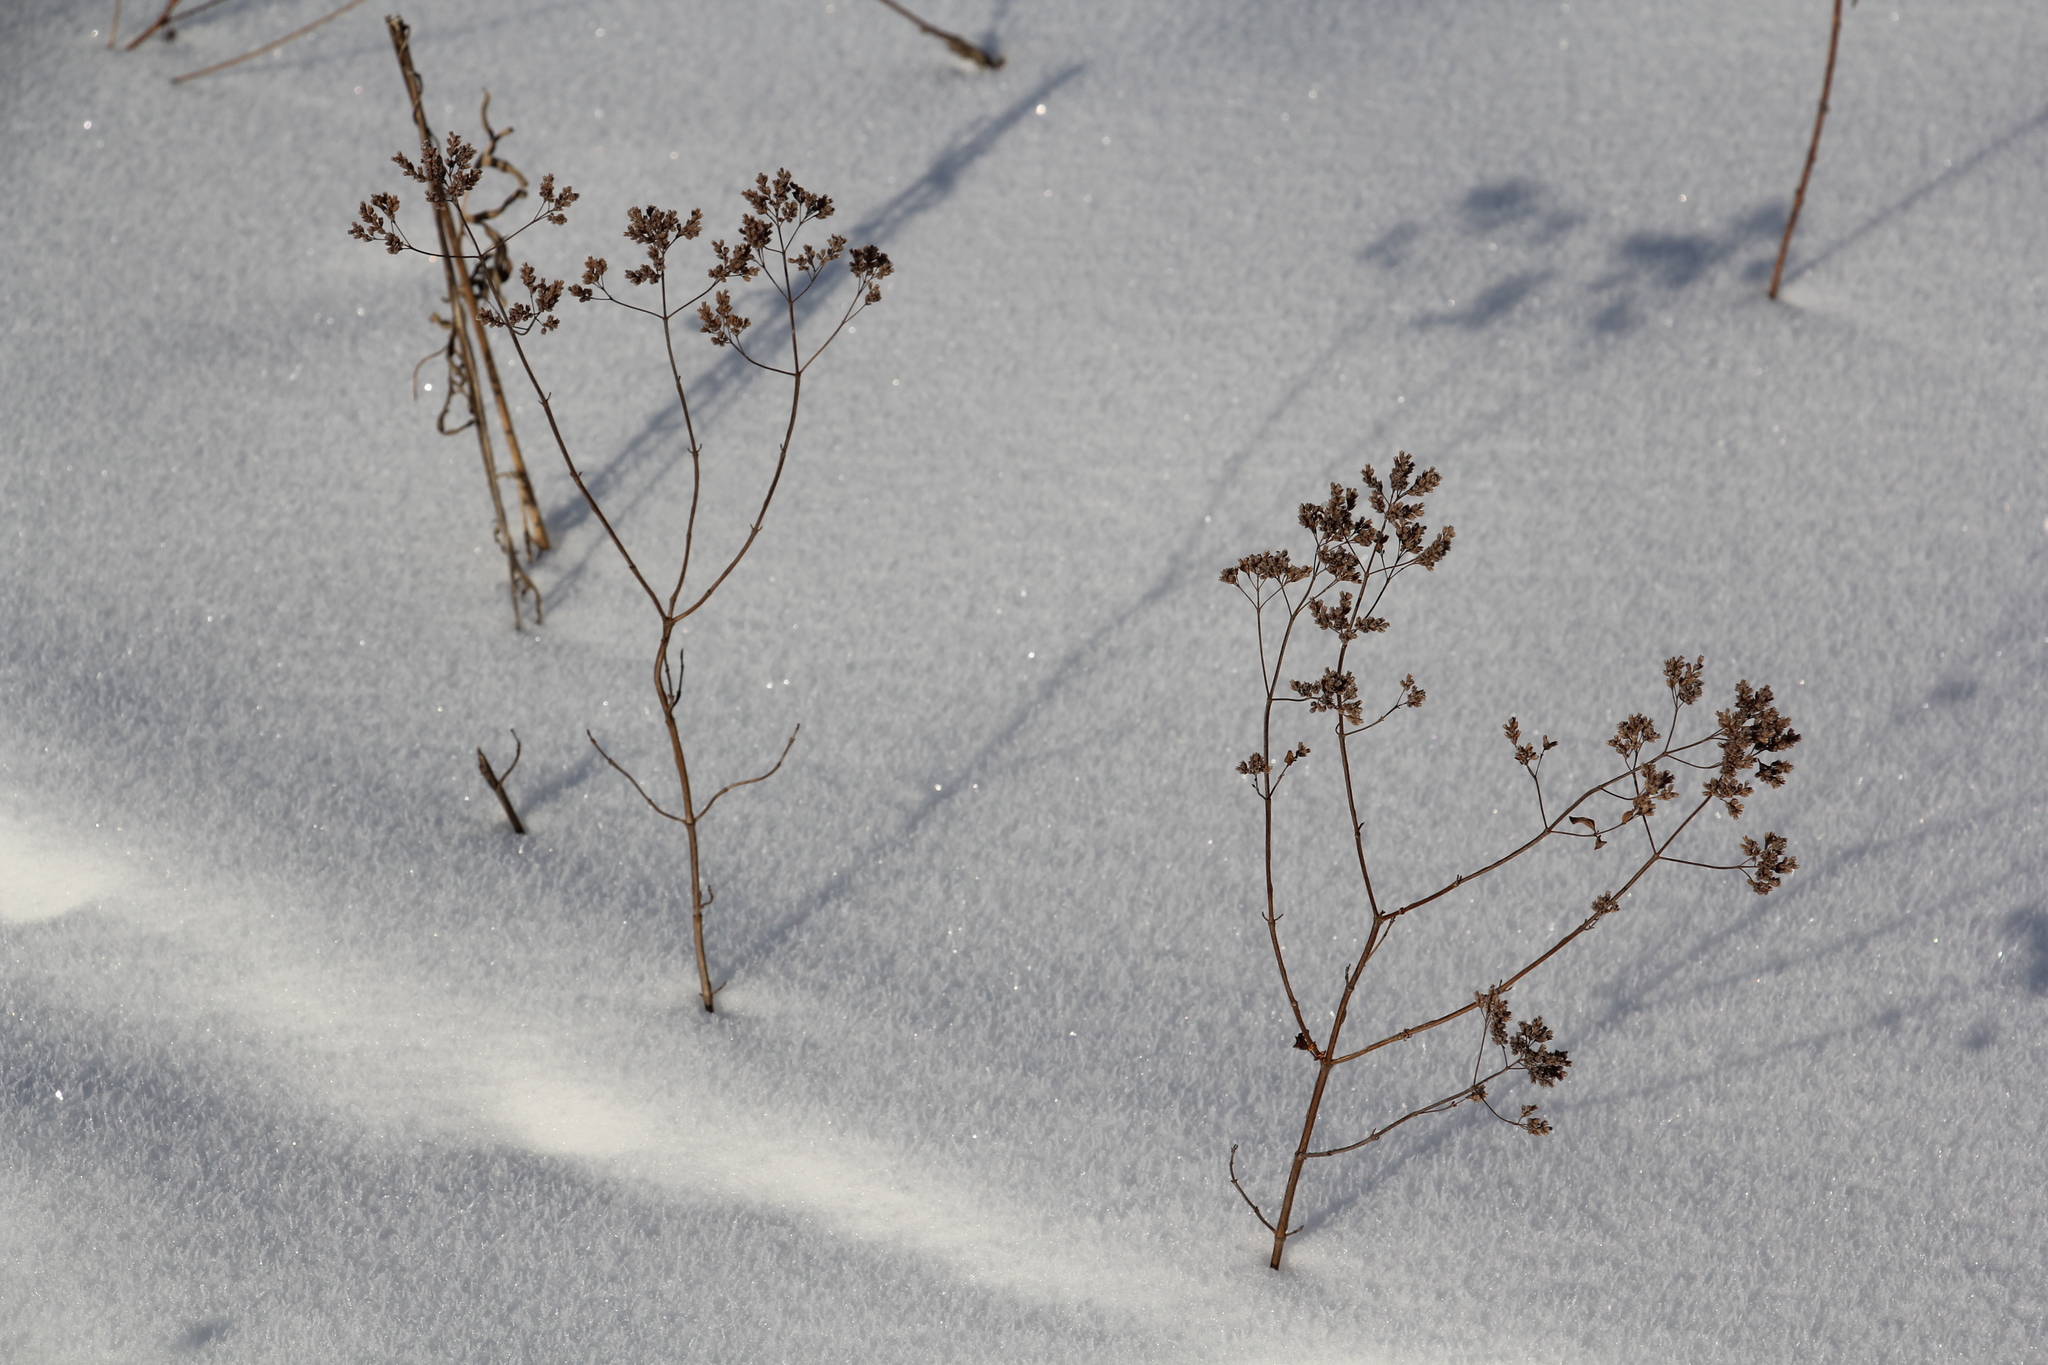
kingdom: Plantae
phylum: Tracheophyta
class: Magnoliopsida
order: Lamiales
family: Lamiaceae
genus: Origanum
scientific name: Origanum vulgare
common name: Wild marjoram
